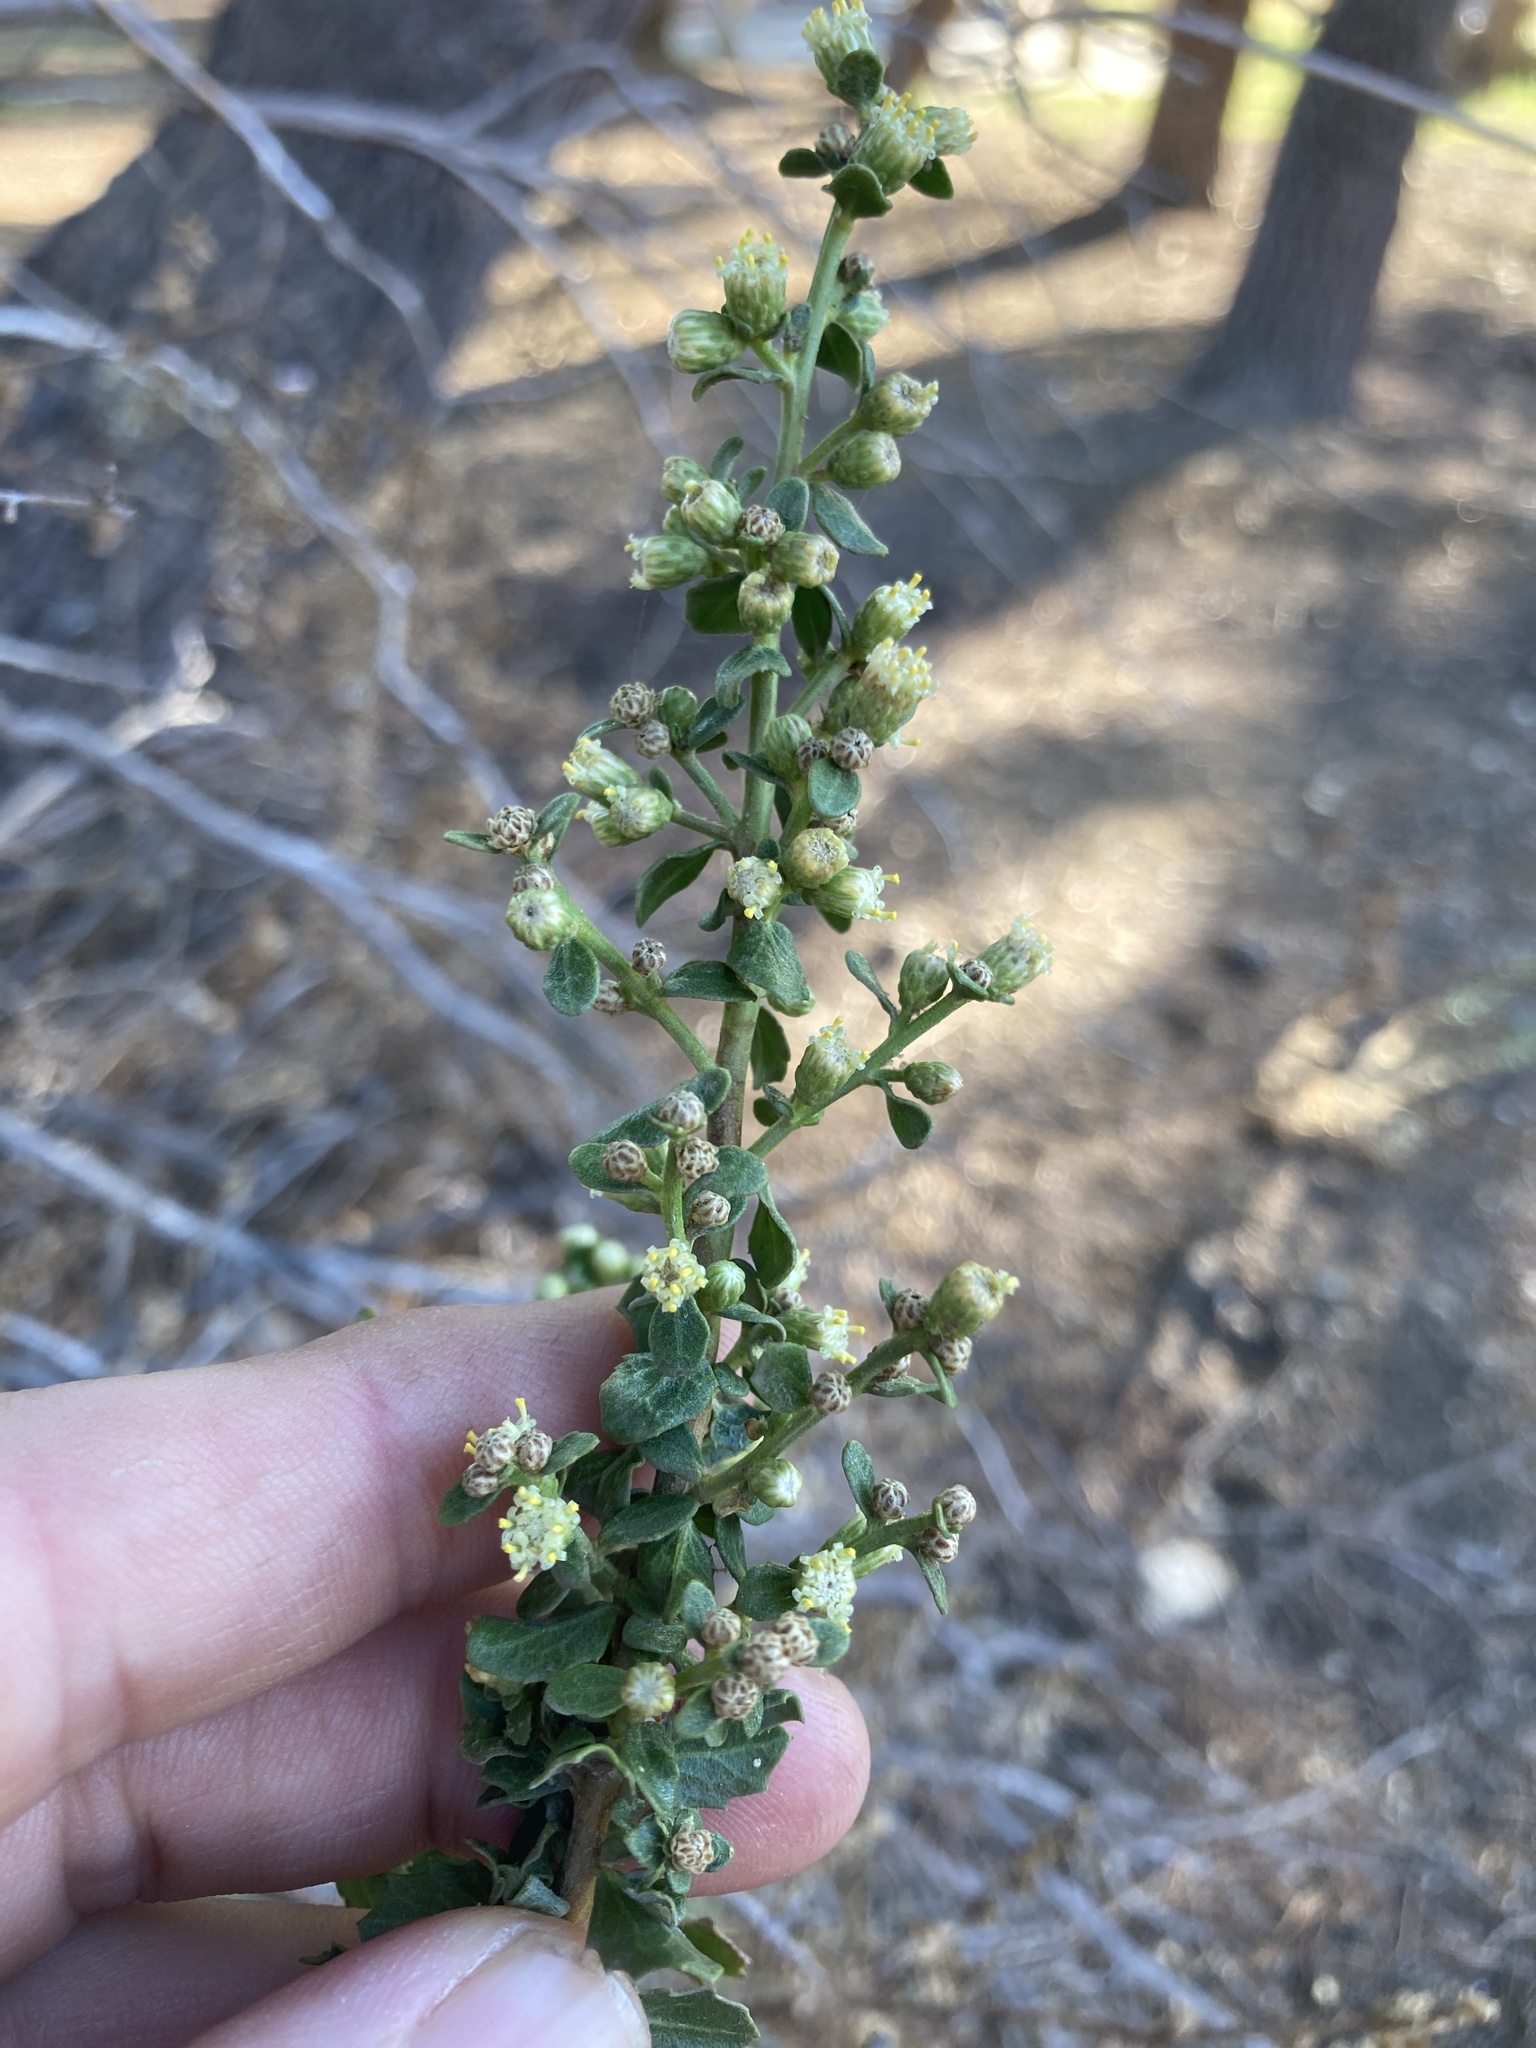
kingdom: Plantae
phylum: Tracheophyta
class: Magnoliopsida
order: Asterales
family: Asteraceae
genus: Baccharis
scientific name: Baccharis pilularis
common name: Coyotebrush
